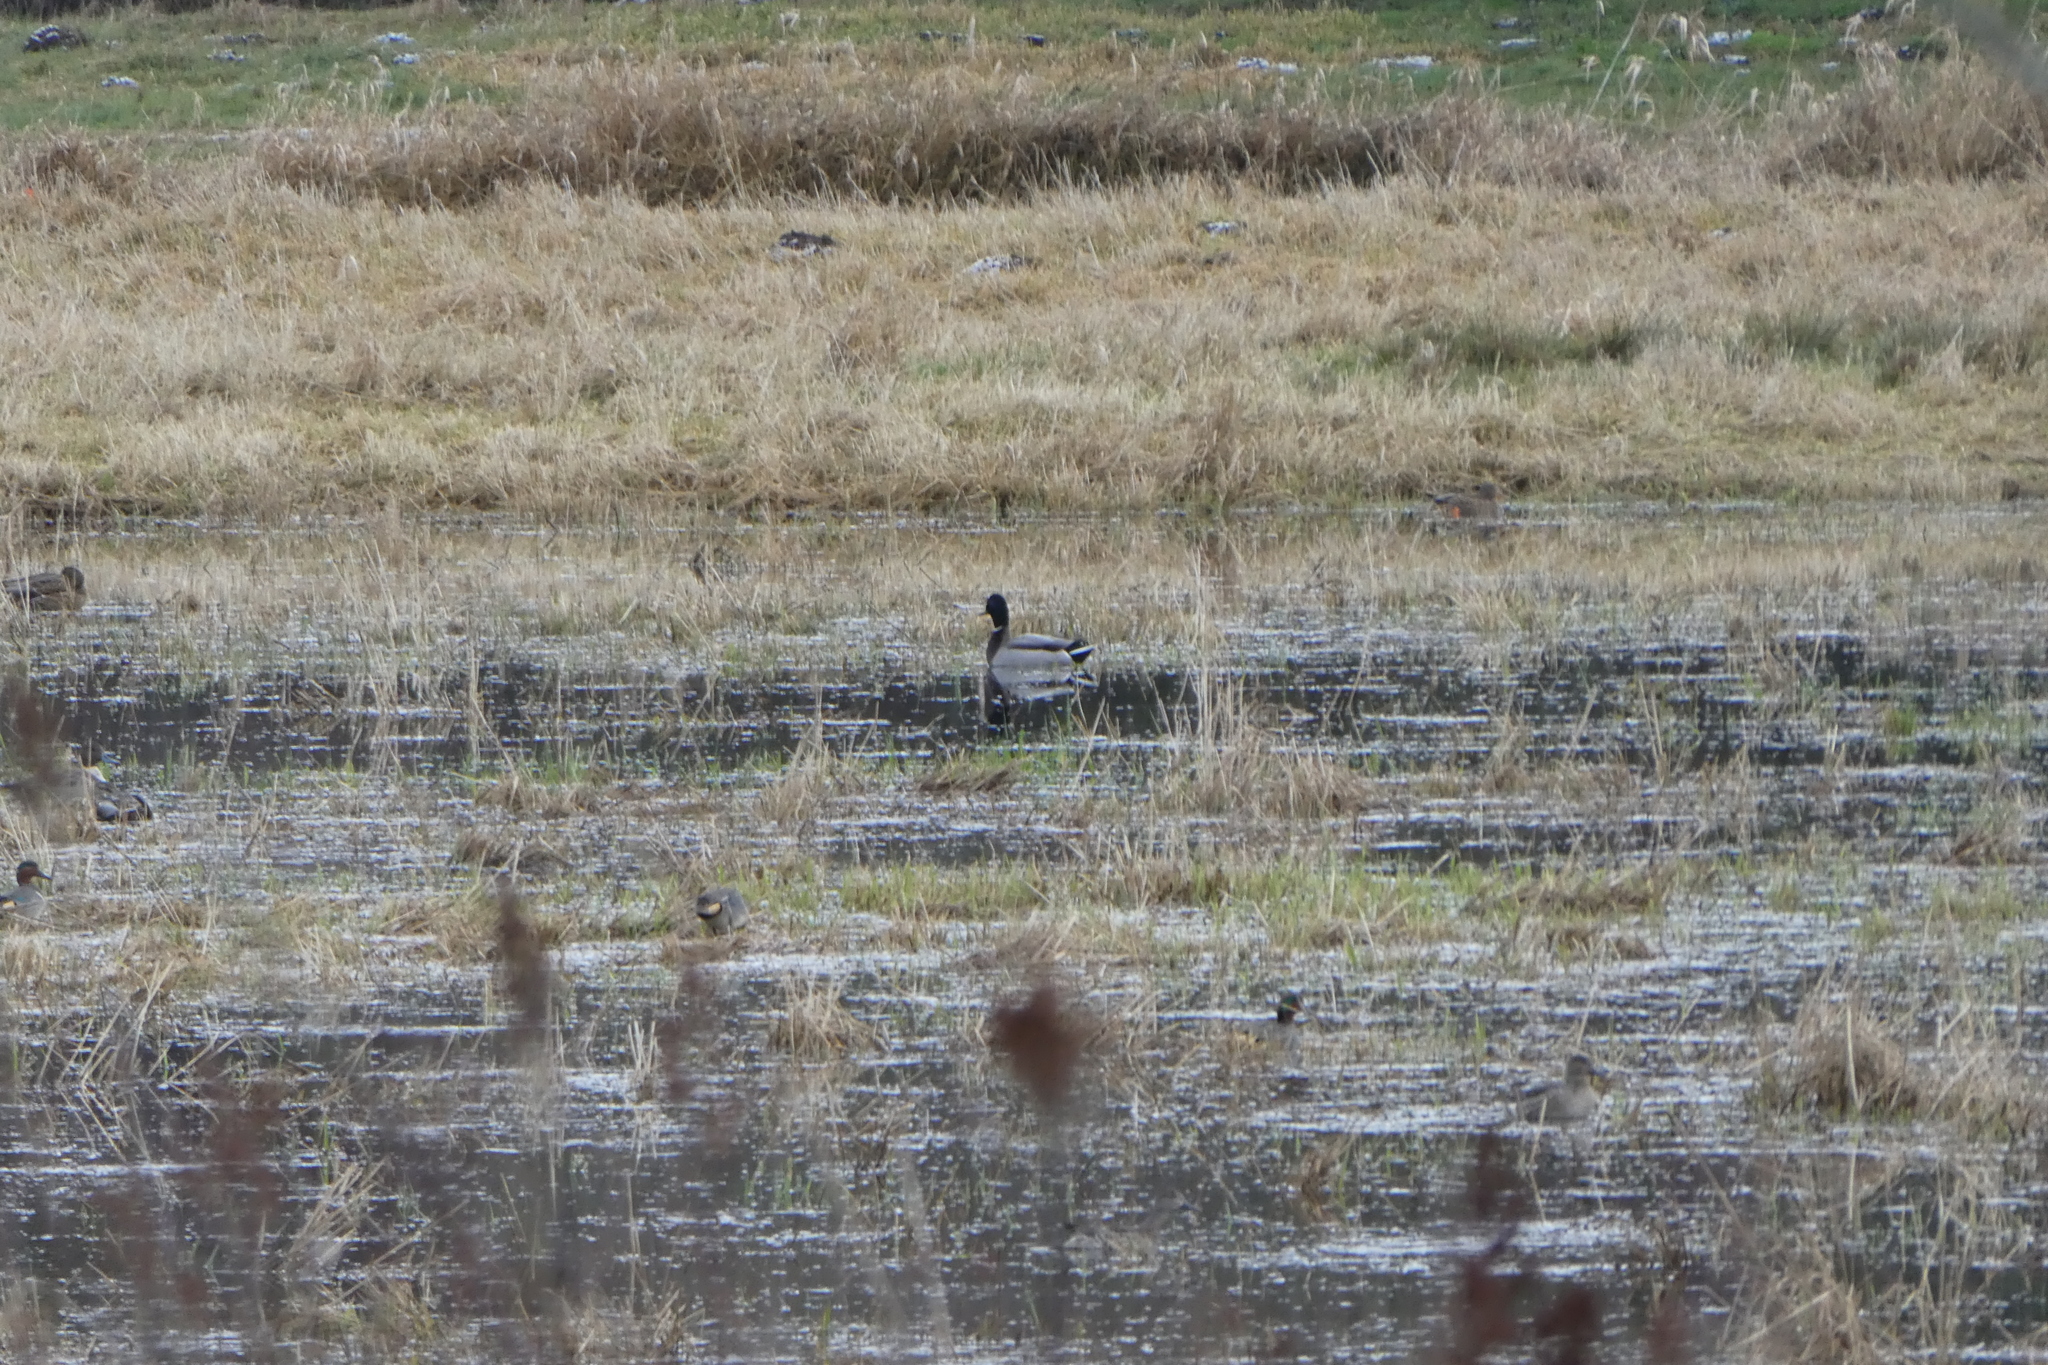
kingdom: Animalia
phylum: Chordata
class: Aves
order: Anseriformes
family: Anatidae
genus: Anas
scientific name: Anas platyrhynchos
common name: Mallard
